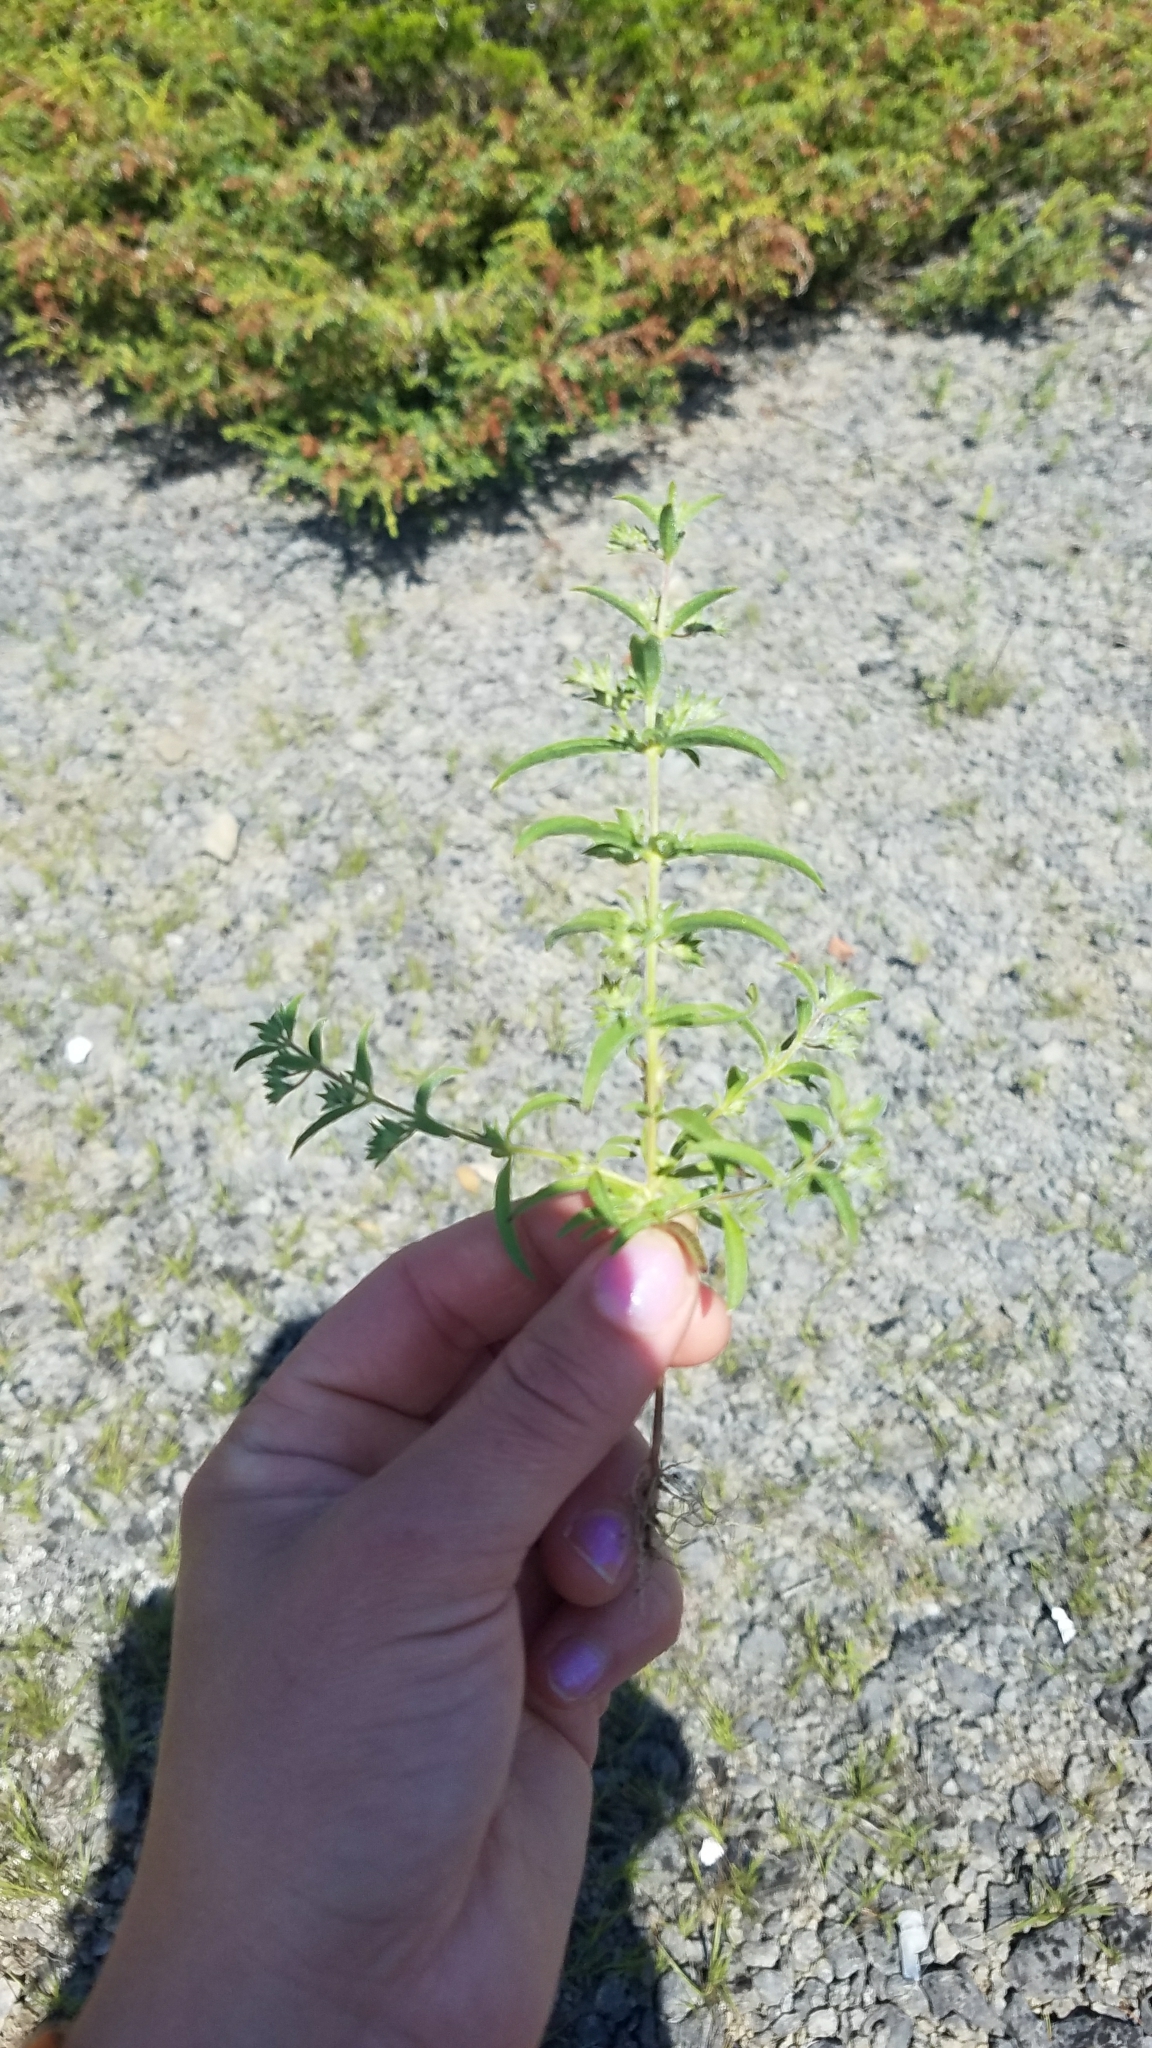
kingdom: Plantae
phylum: Tracheophyta
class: Magnoliopsida
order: Lamiales
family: Lamiaceae
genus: Trichostema
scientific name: Trichostema brachiatum
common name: False pennyroyal
